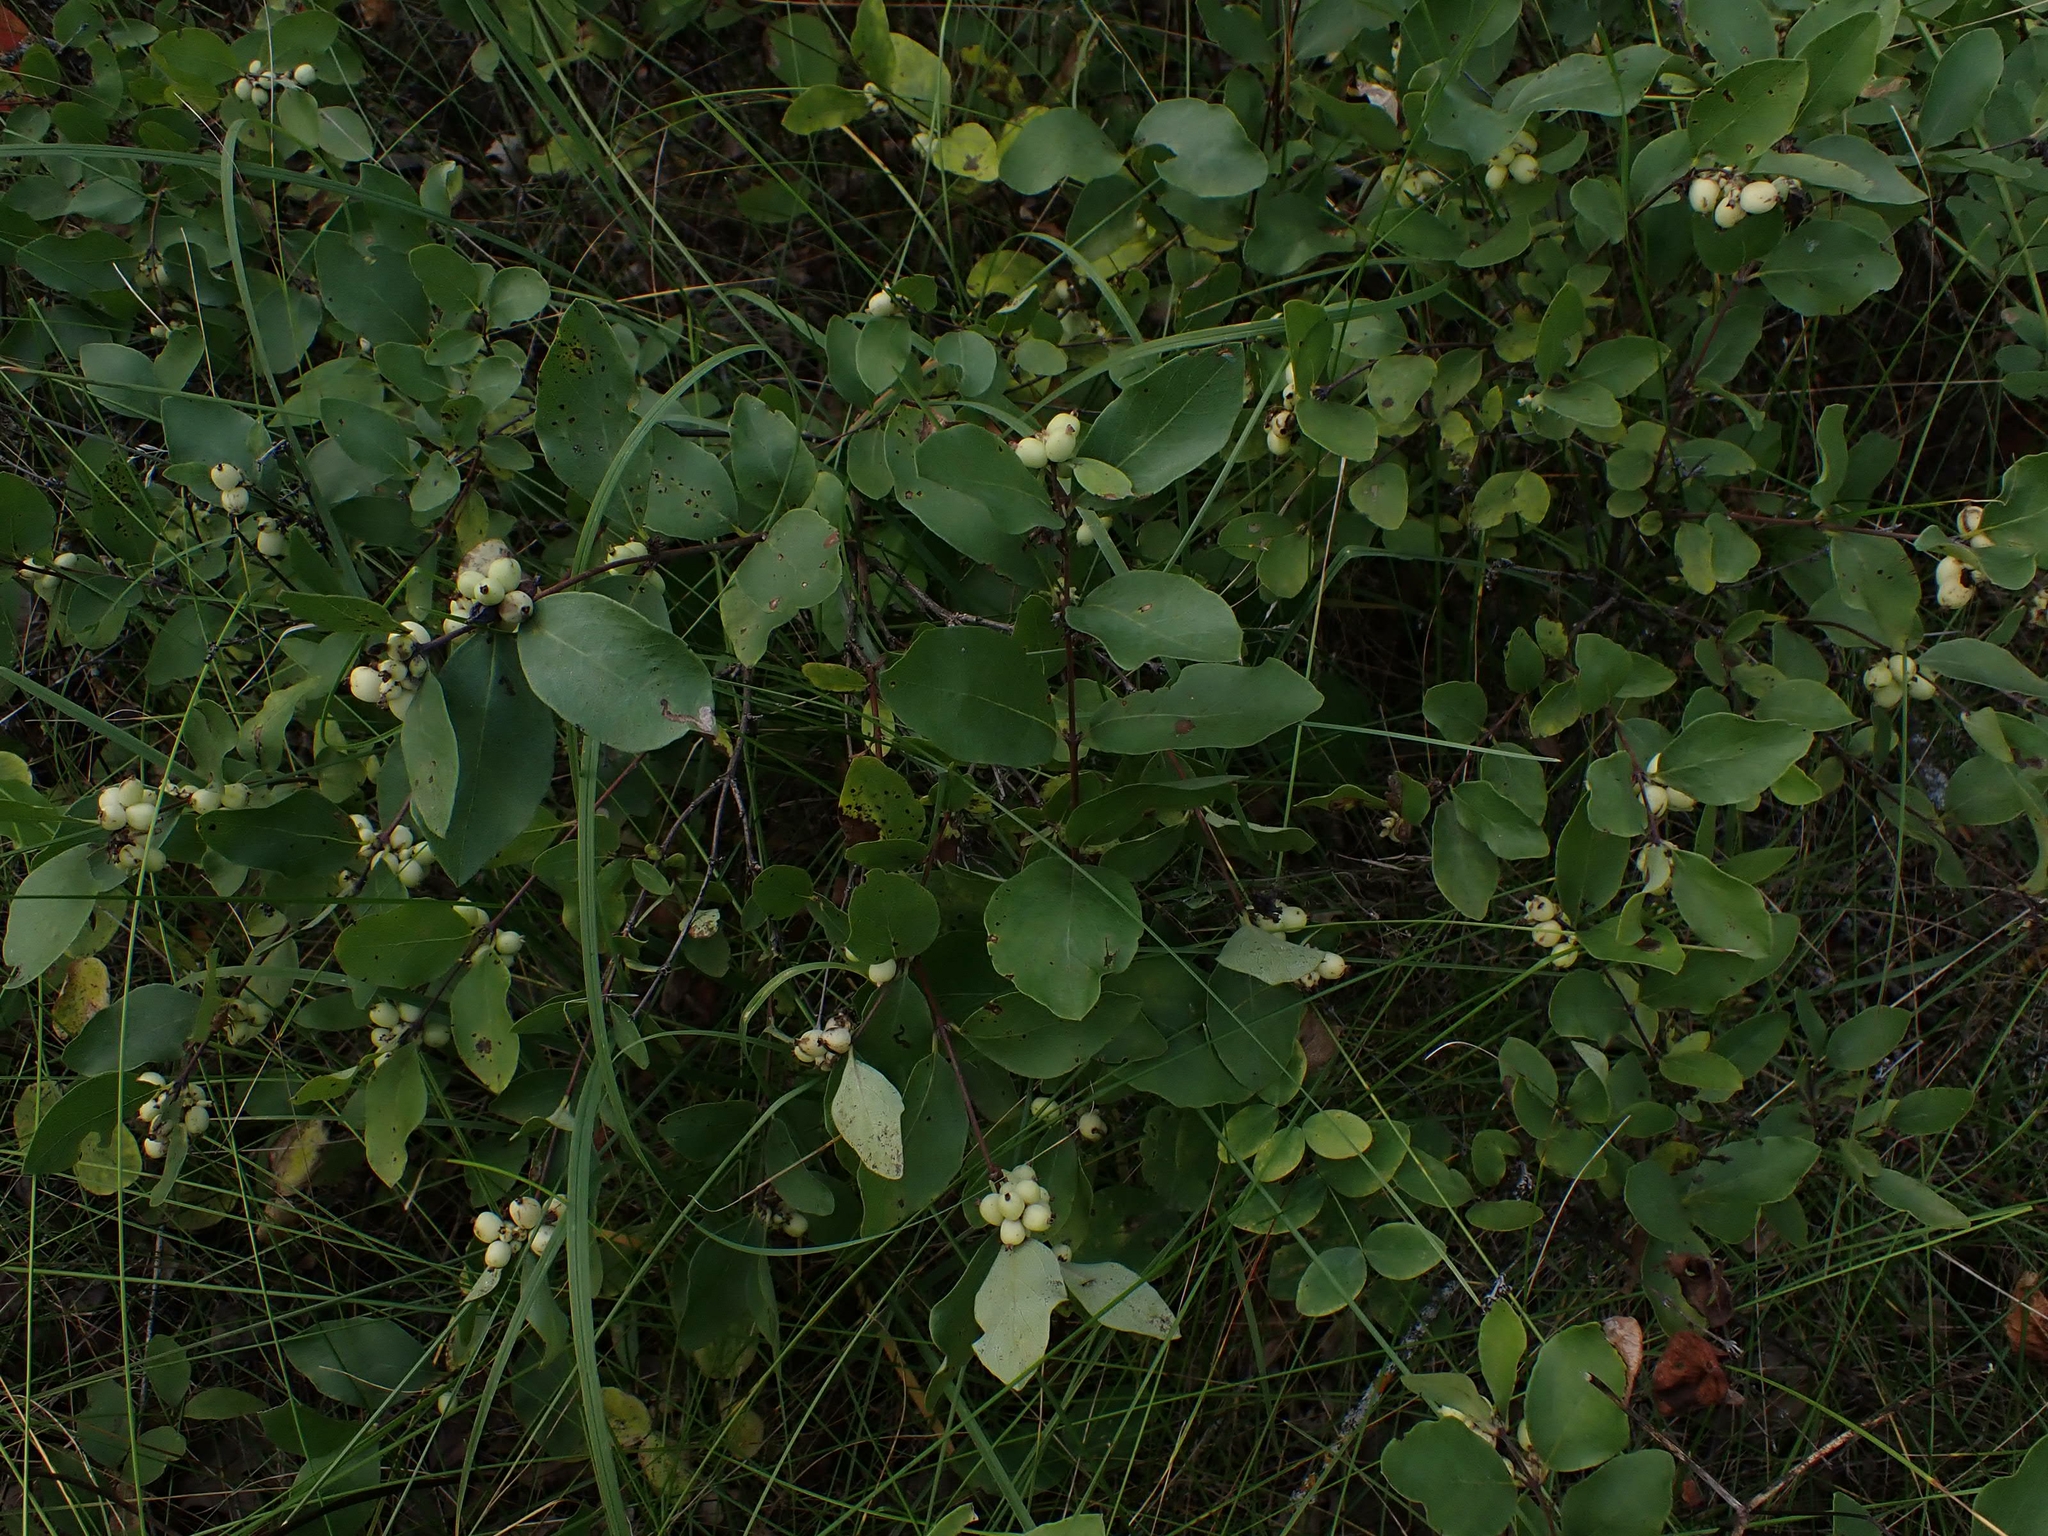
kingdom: Plantae
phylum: Tracheophyta
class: Magnoliopsida
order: Dipsacales
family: Caprifoliaceae
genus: Symphoricarpos
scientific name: Symphoricarpos occidentalis
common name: Wolfberry
